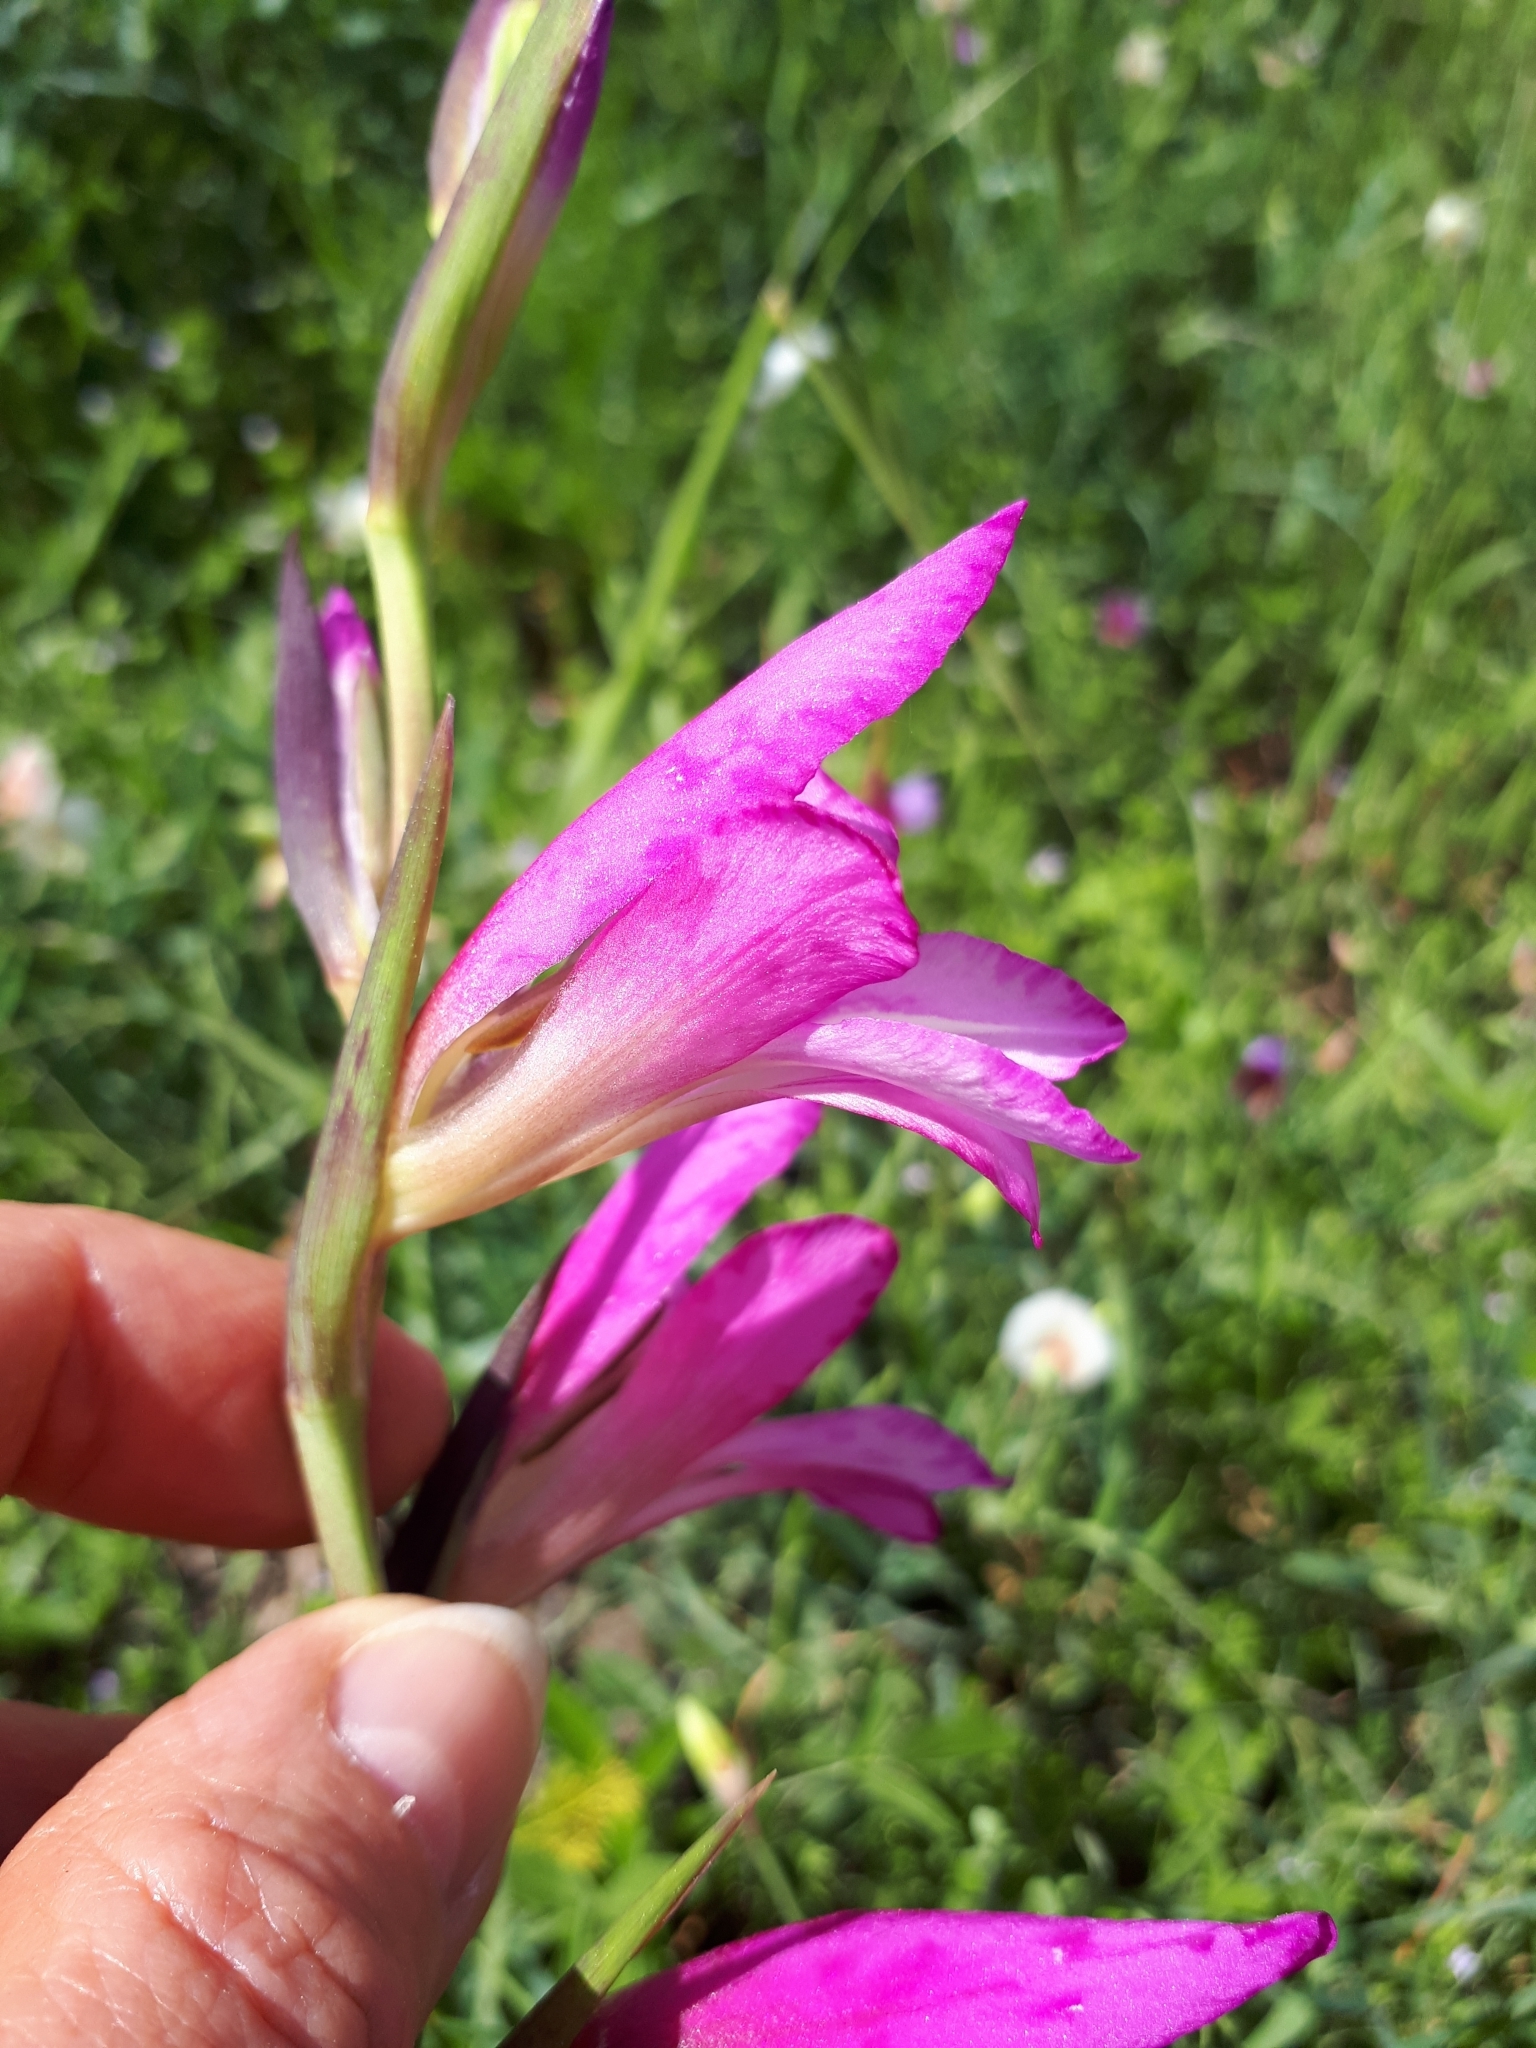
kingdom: Plantae
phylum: Tracheophyta
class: Liliopsida
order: Asparagales
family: Iridaceae
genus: Gladiolus
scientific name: Gladiolus italicus
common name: Field gladiolus
